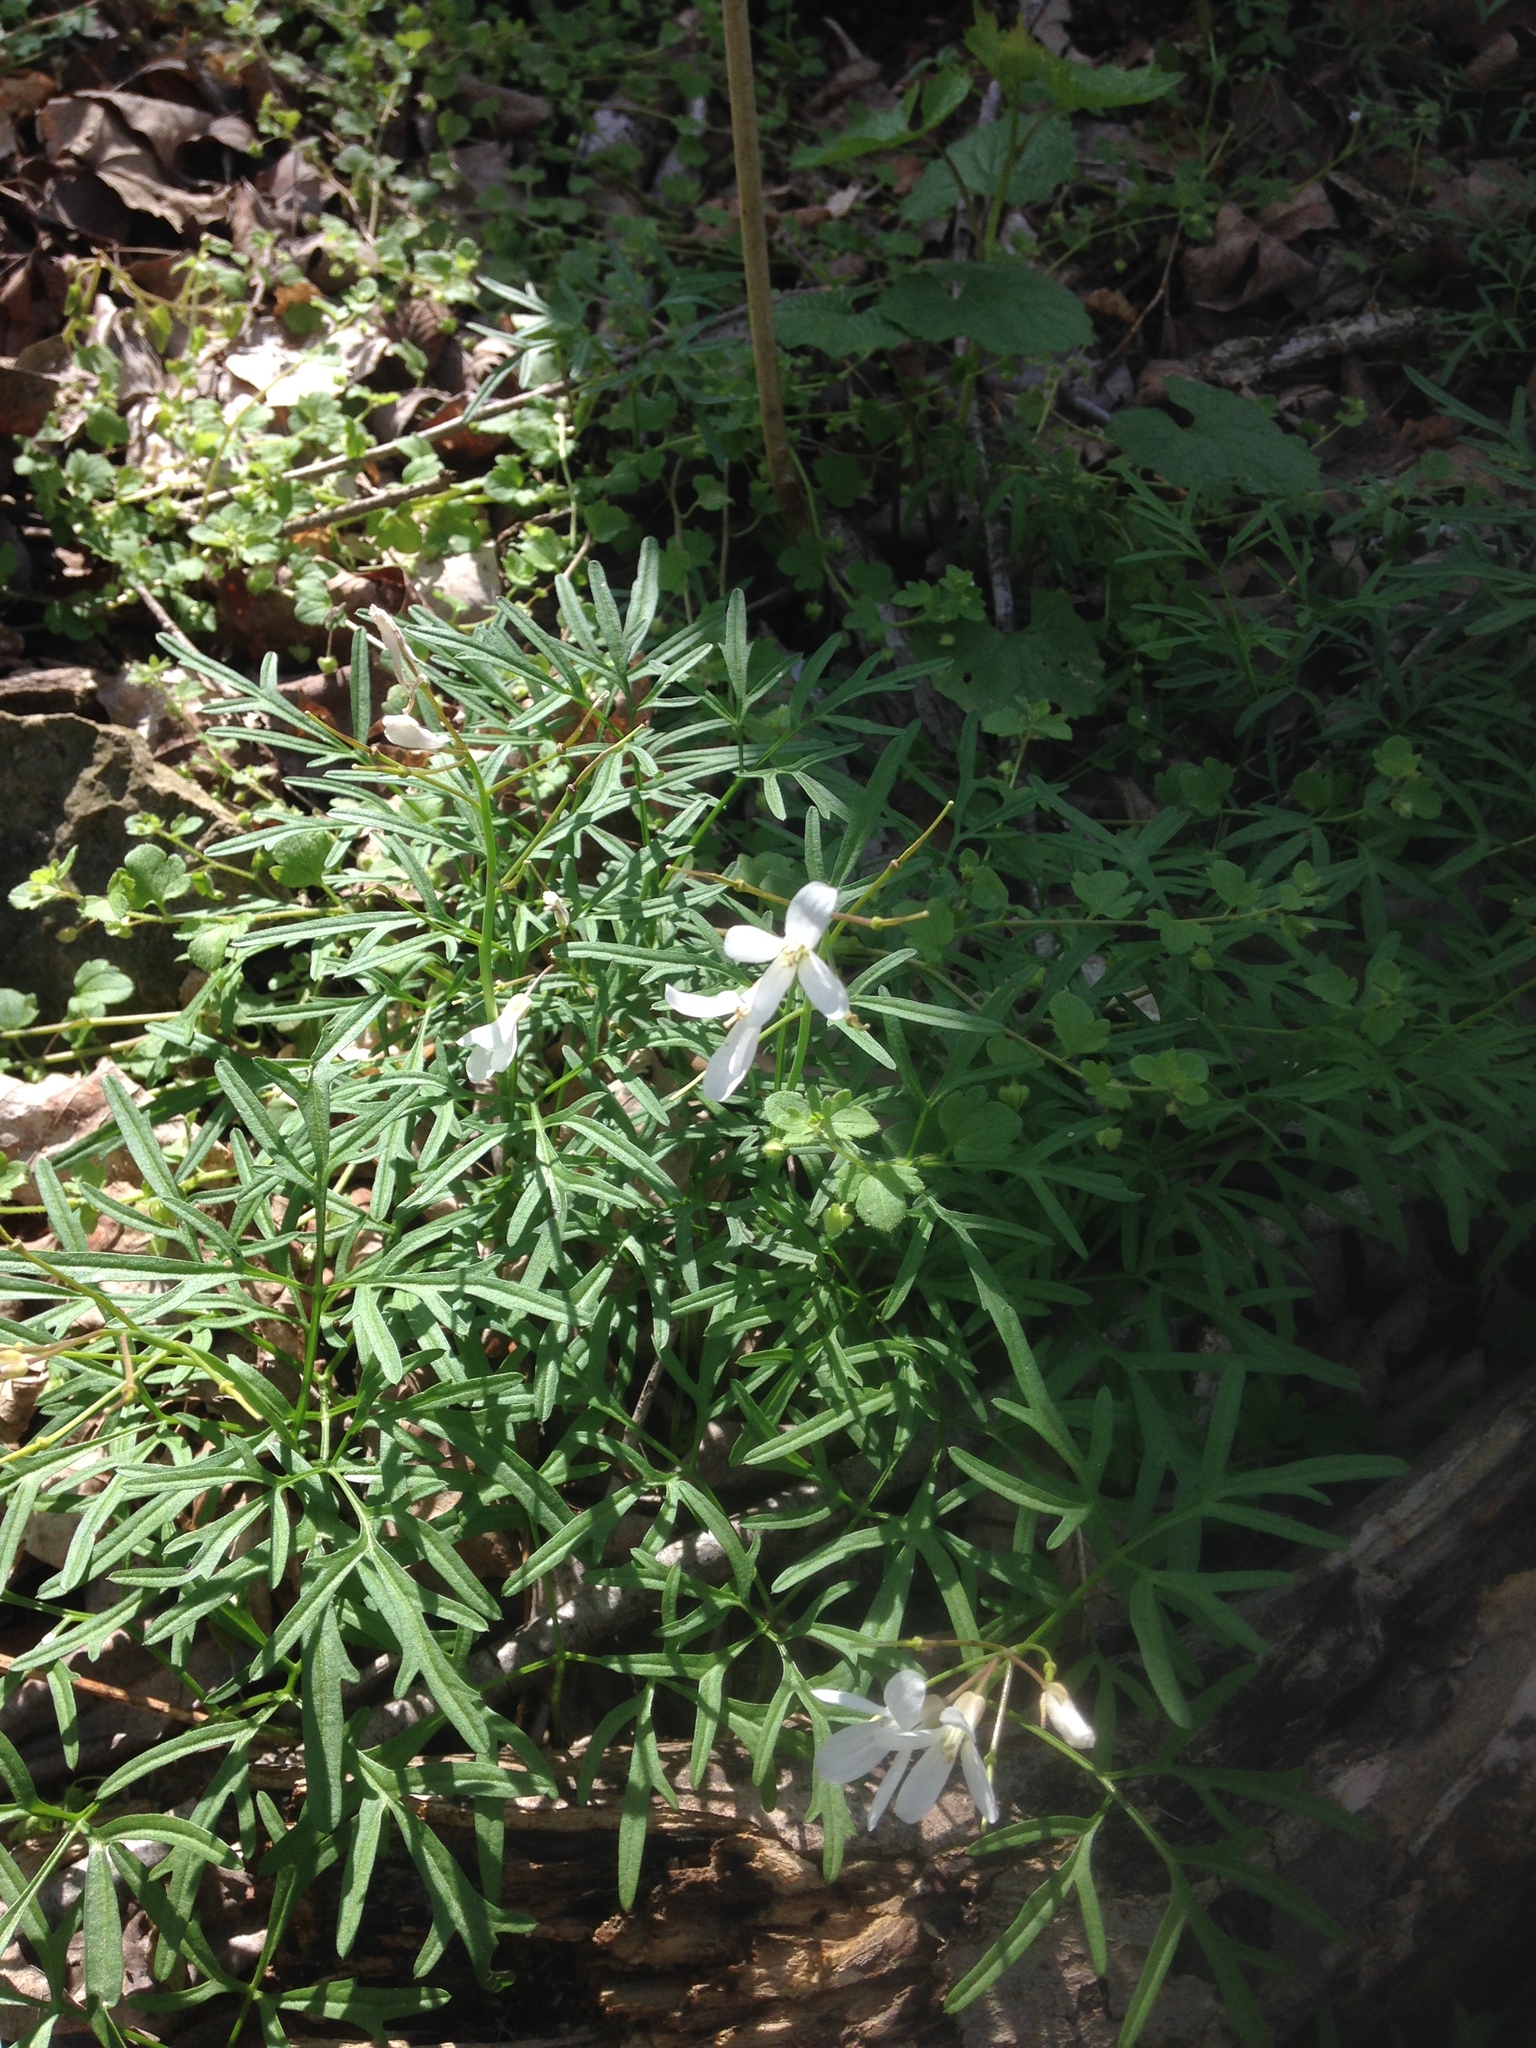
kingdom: Plantae
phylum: Tracheophyta
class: Magnoliopsida
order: Brassicales
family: Brassicaceae
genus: Cardamine
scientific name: Cardamine dissecta
